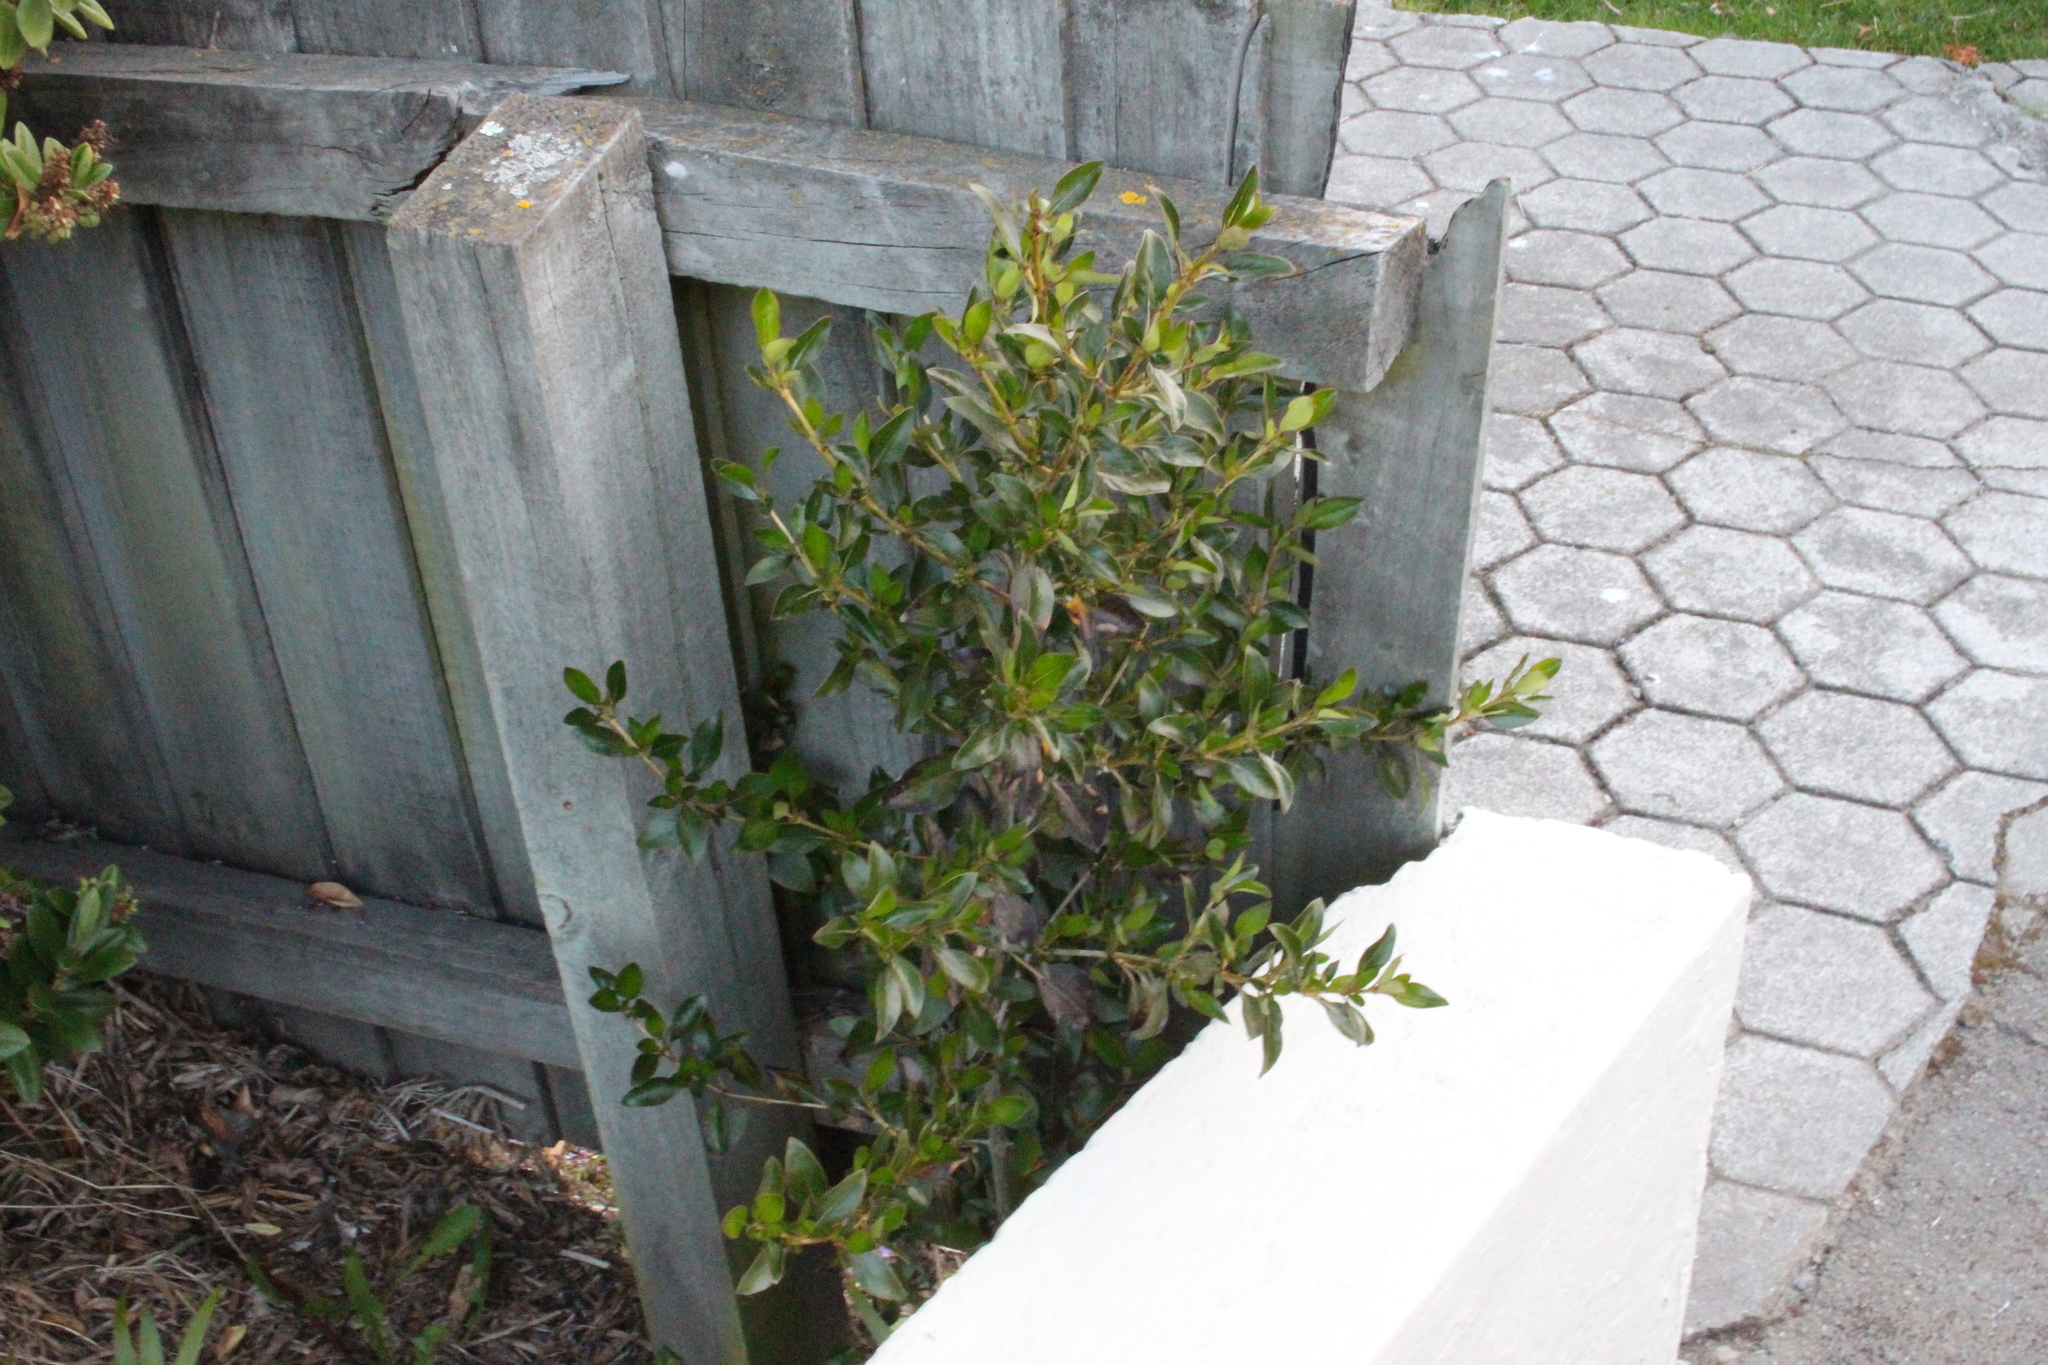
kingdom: Plantae
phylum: Tracheophyta
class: Magnoliopsida
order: Gentianales
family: Rubiaceae
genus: Coprosma
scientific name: Coprosma robusta
